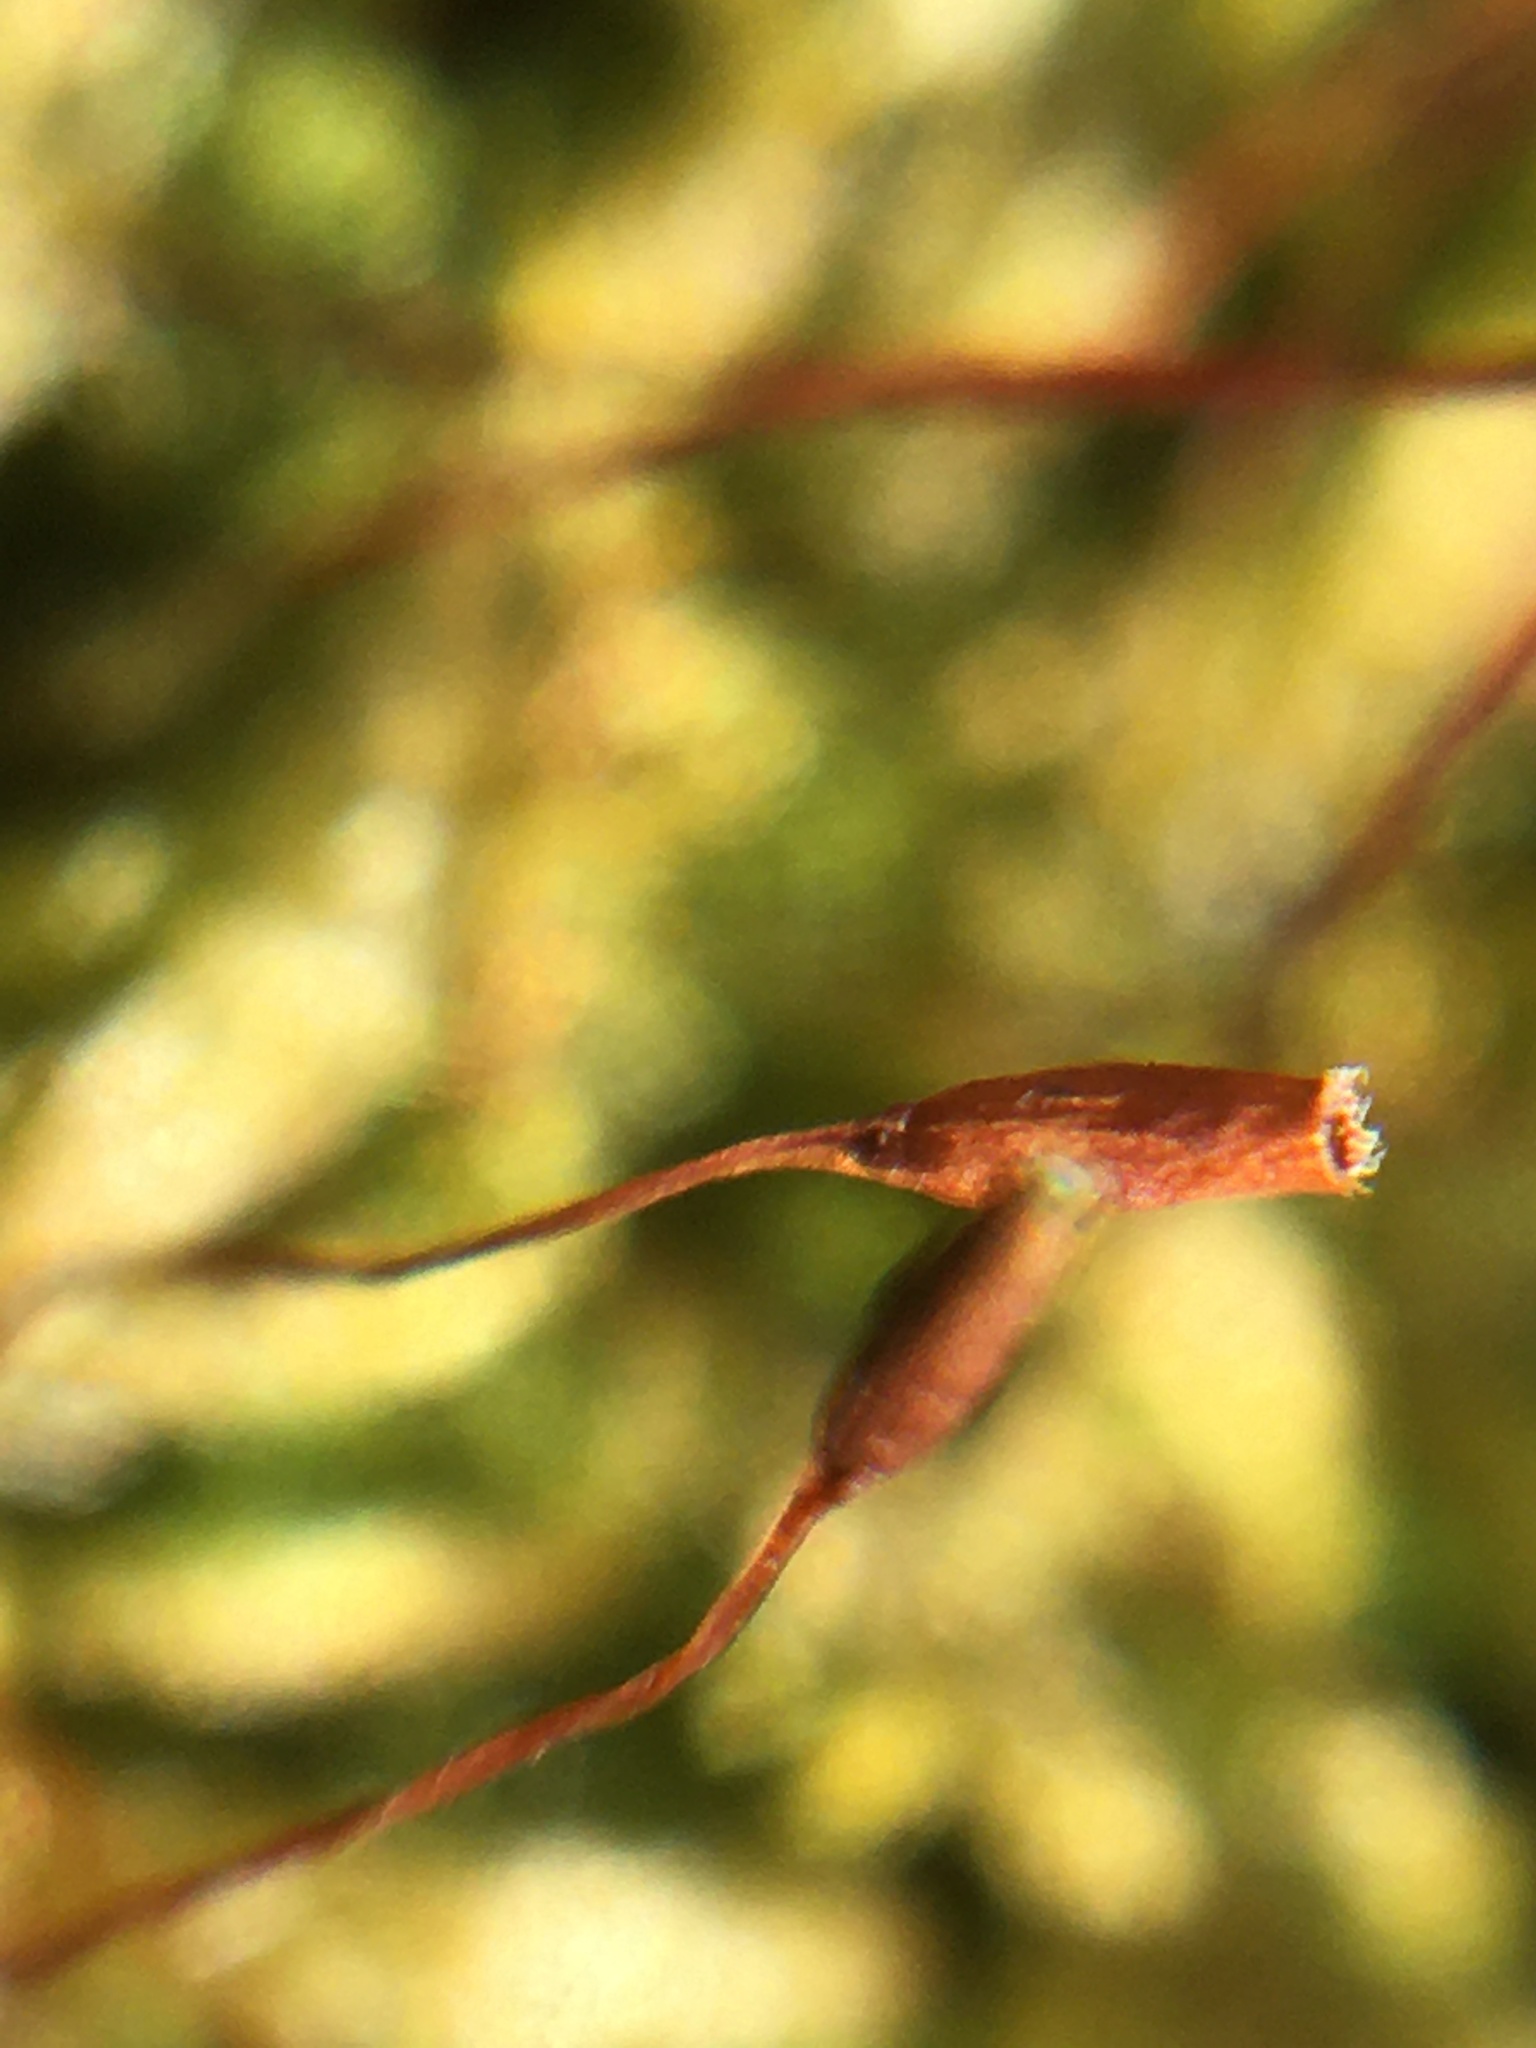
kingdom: Plantae
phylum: Bryophyta
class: Bryopsida
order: Hypnales
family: Entodontaceae
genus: Entodon
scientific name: Entodon seductrix
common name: Round-stemmed entodon moss
